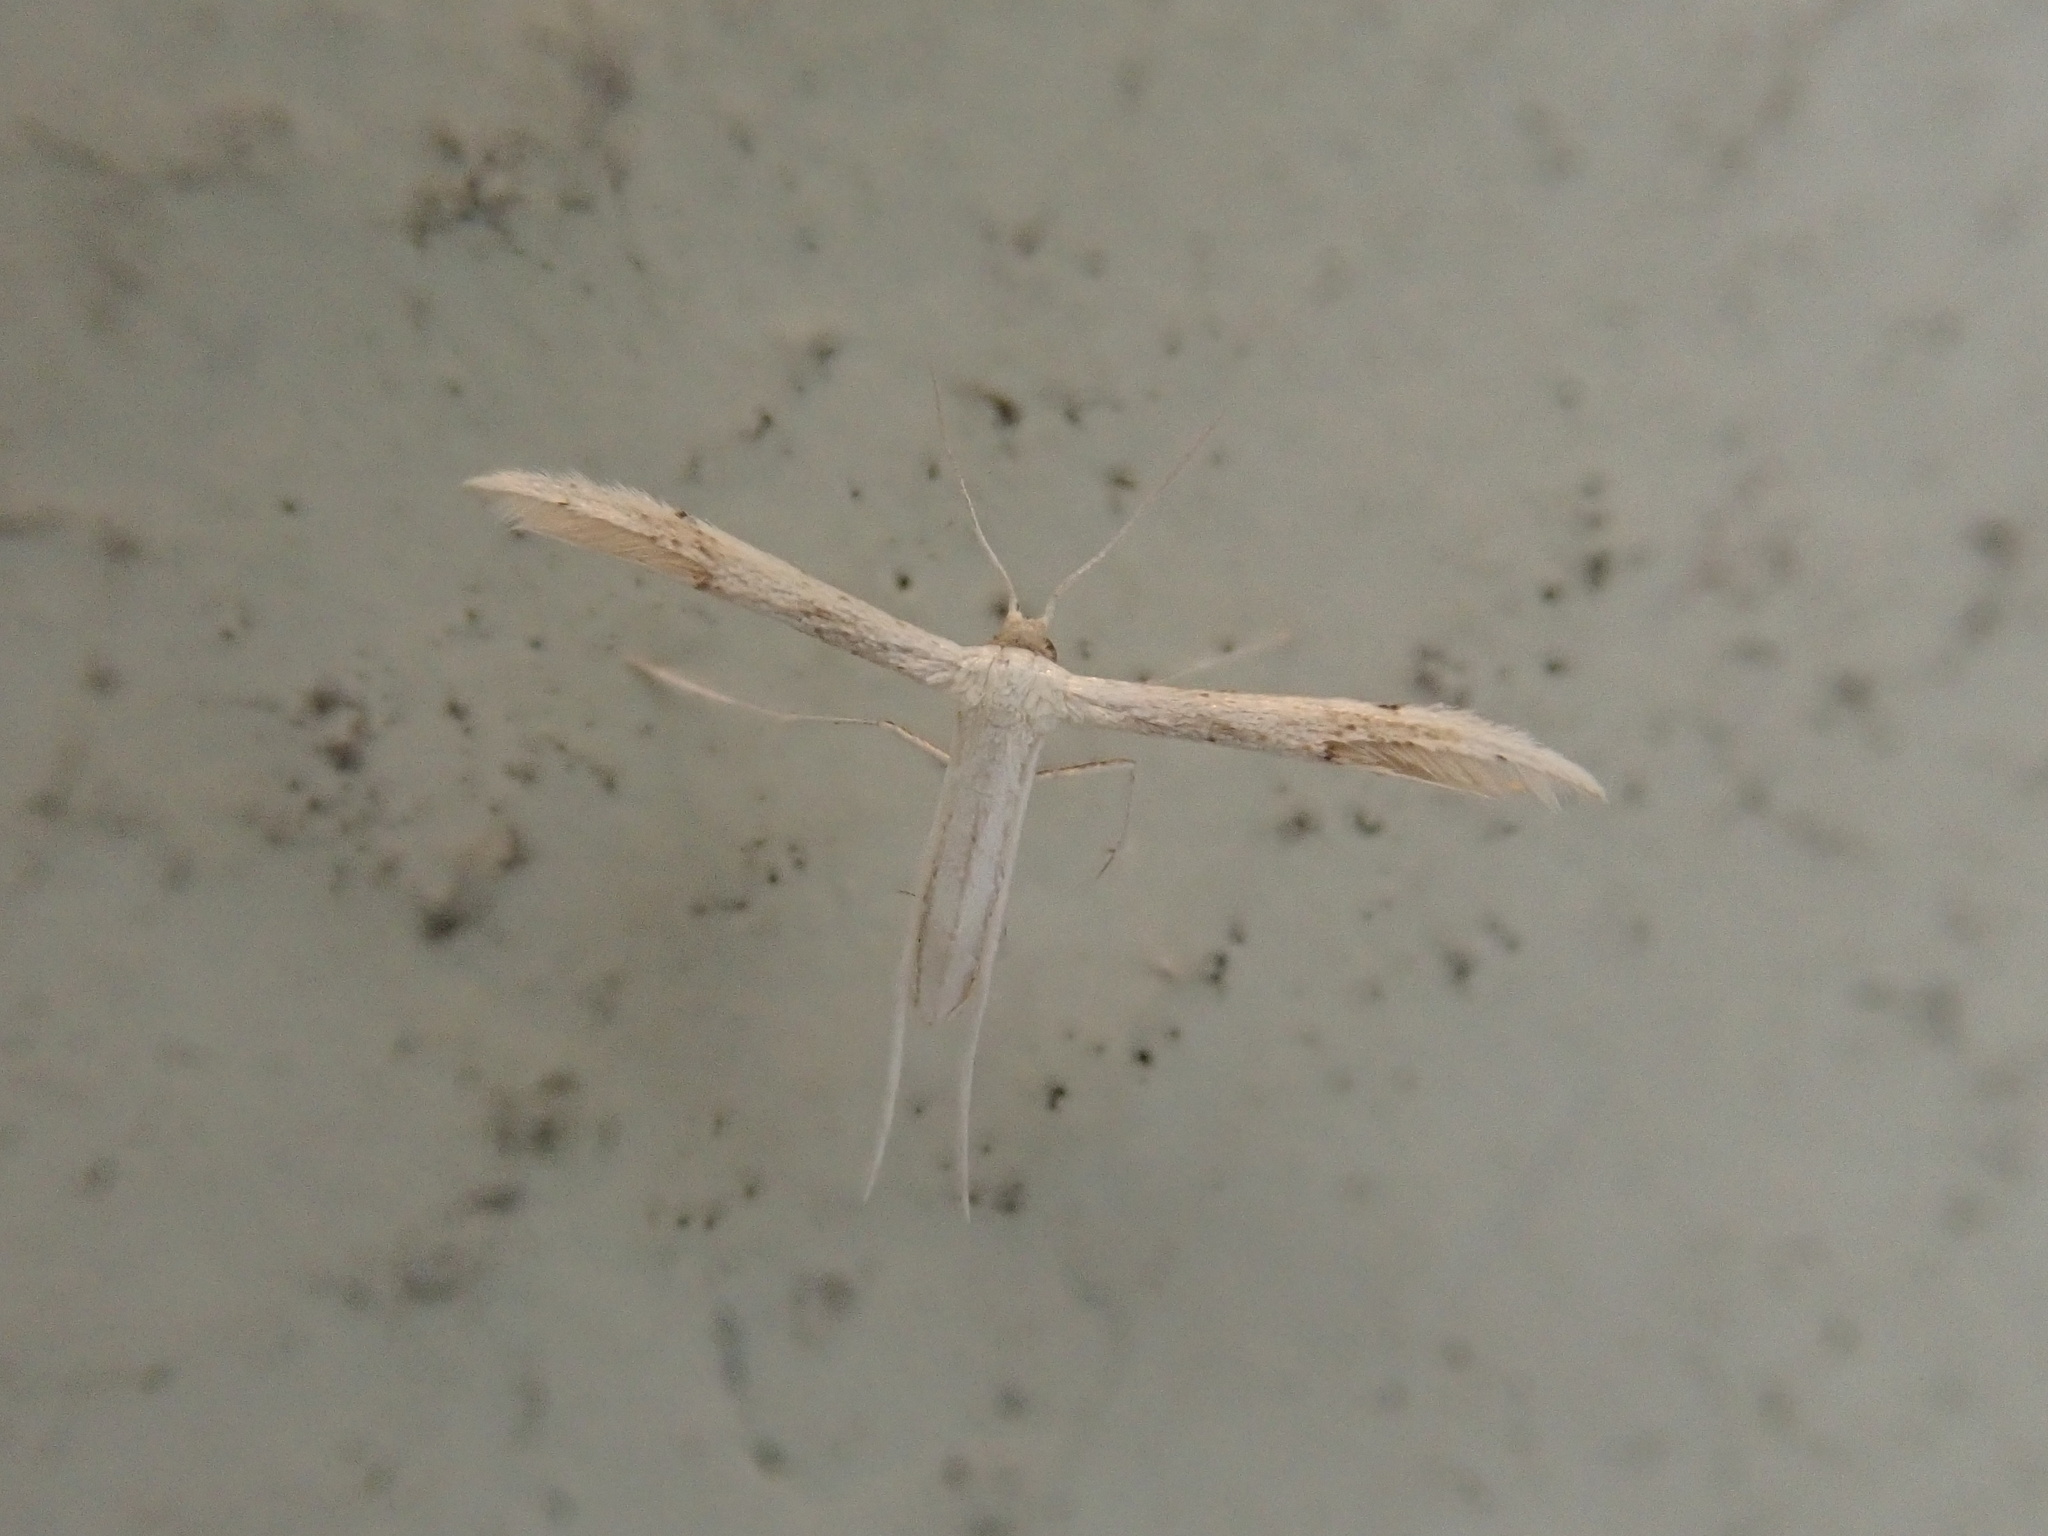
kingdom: Animalia
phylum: Arthropoda
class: Insecta
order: Lepidoptera
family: Pterophoridae
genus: Adaina
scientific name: Adaina
